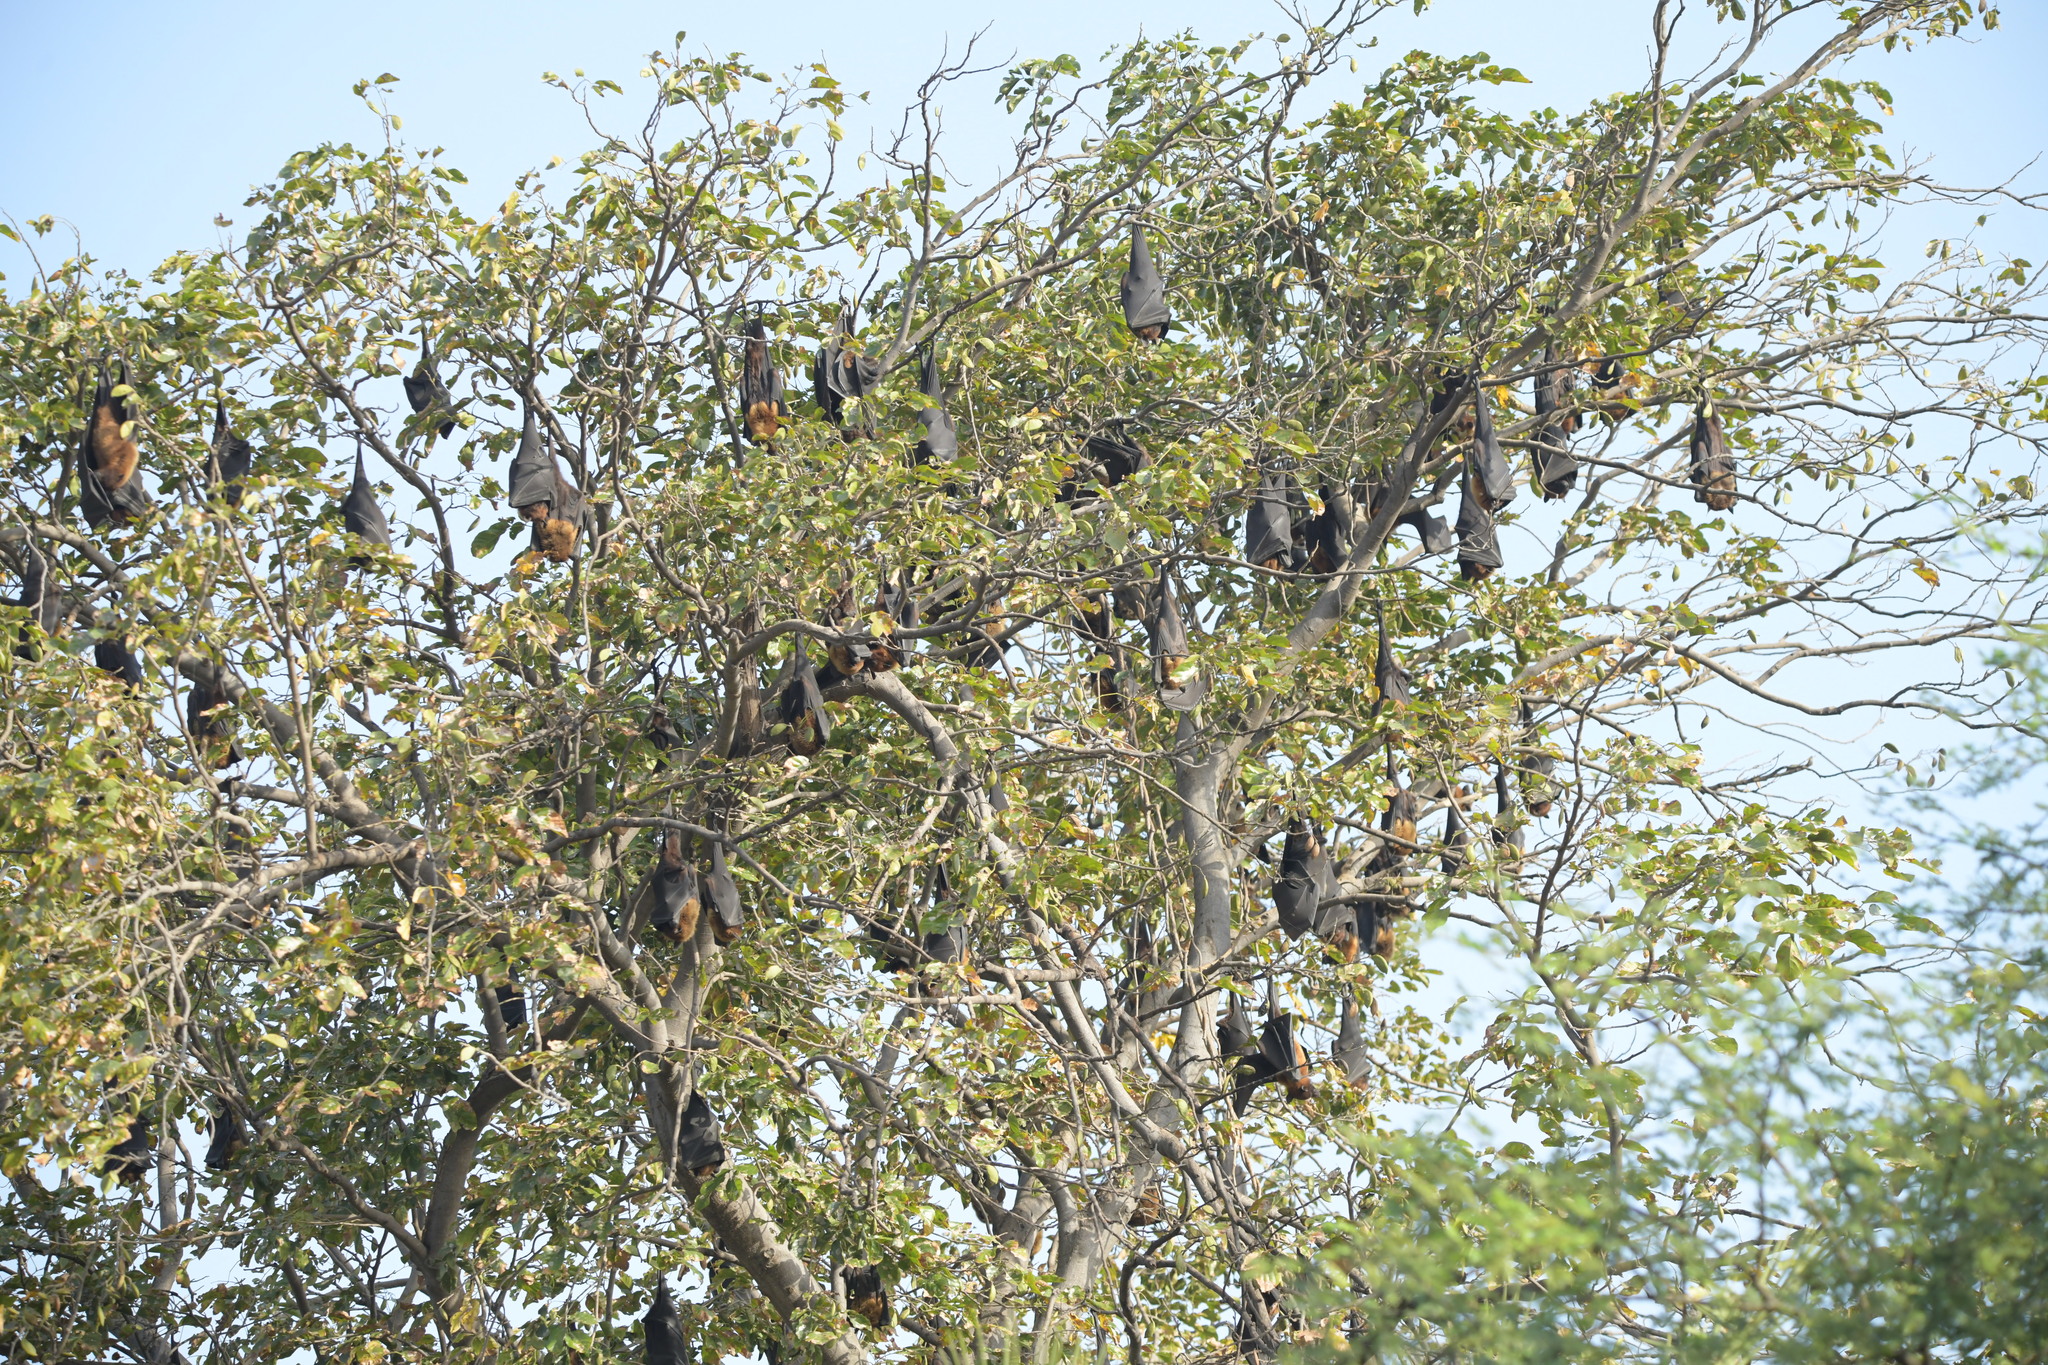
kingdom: Animalia
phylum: Chordata
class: Mammalia
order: Chiroptera
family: Pteropodidae
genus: Pteropus
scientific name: Pteropus vampyrus
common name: Large flying fox
